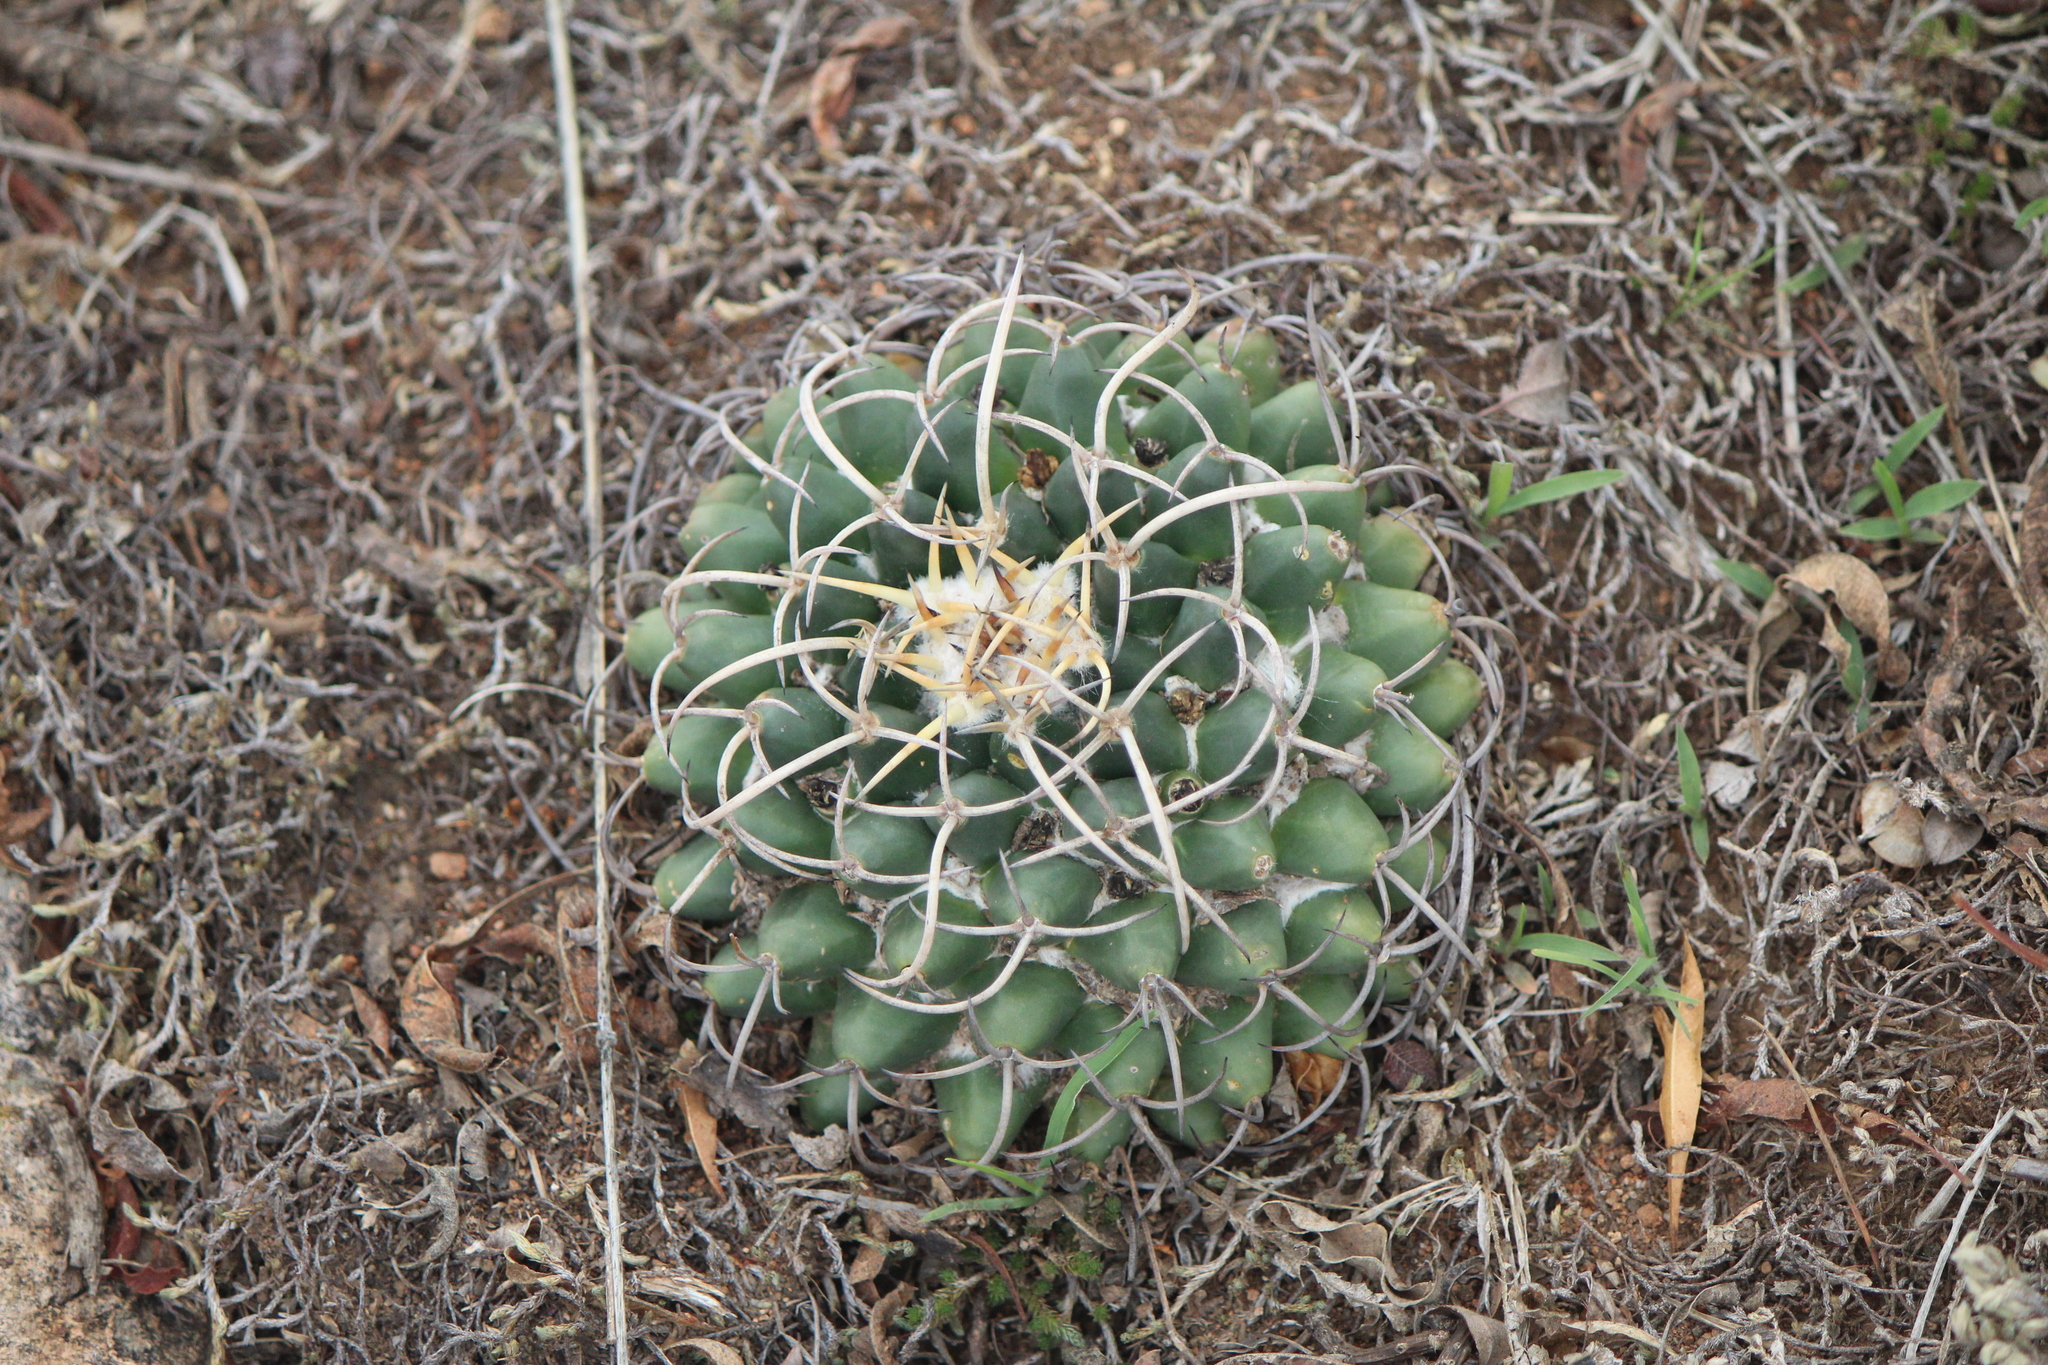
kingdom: Plantae
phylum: Tracheophyta
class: Magnoliopsida
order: Caryophyllales
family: Cactaceae
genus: Mammillaria
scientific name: Mammillaria magnimamma
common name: Mexican pincushion
